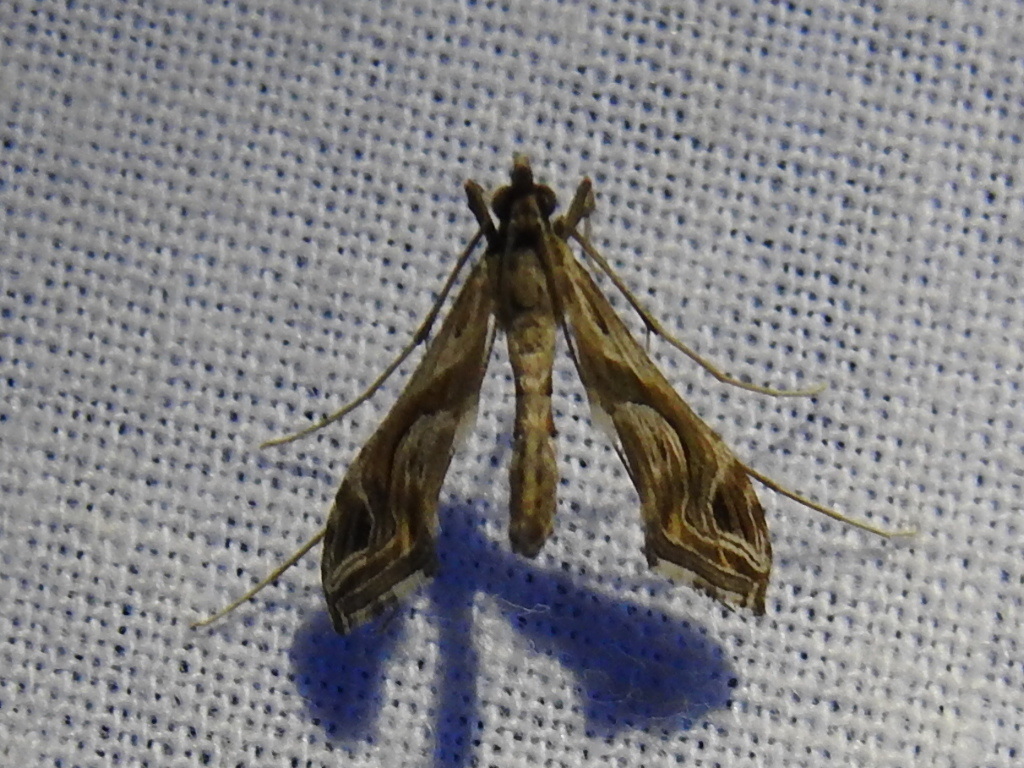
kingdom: Animalia
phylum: Arthropoda
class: Insecta
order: Lepidoptera
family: Crambidae
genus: Lineodes
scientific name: Lineodes integra
